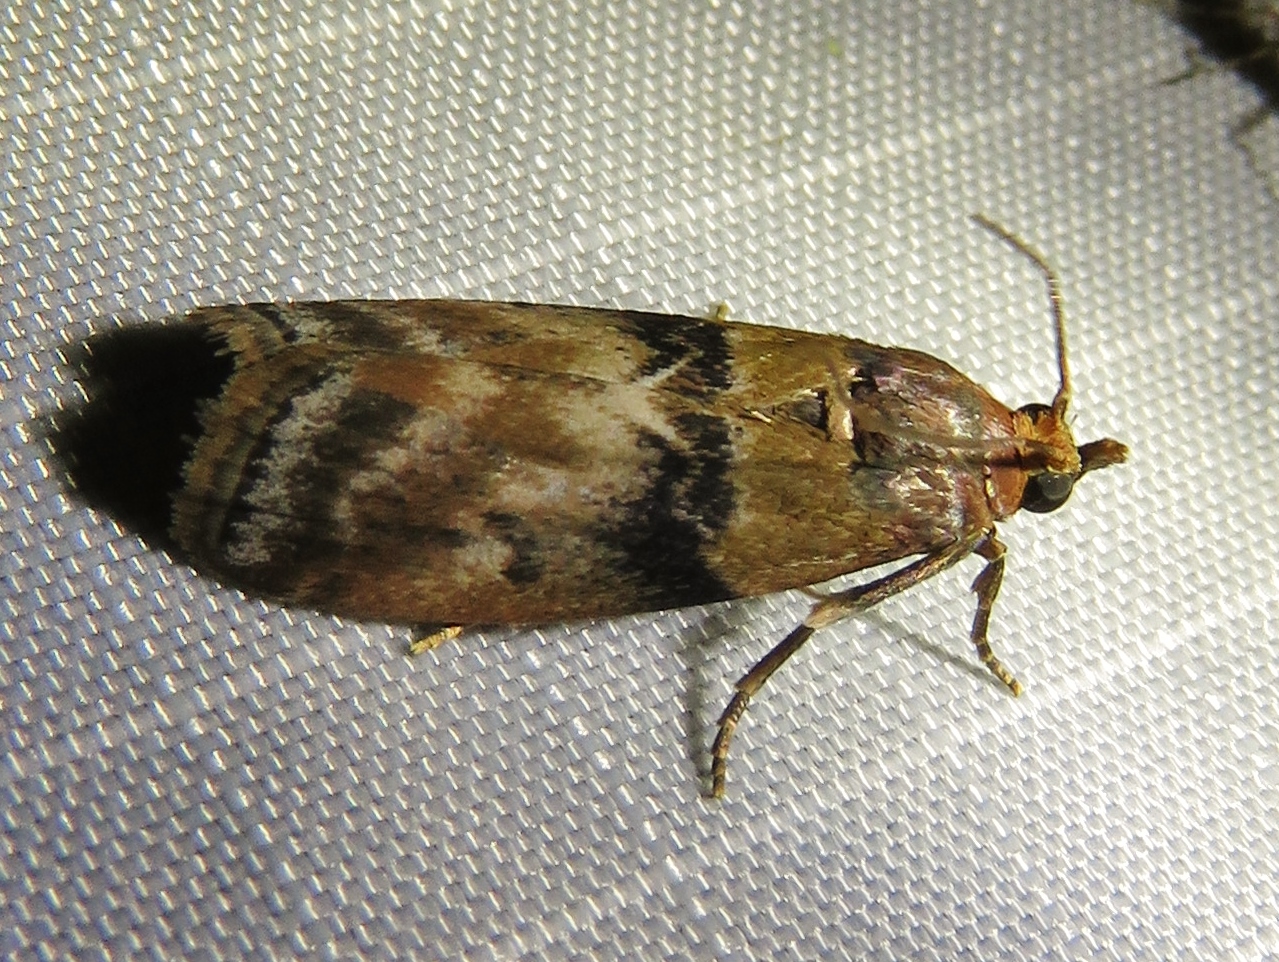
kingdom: Animalia
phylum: Arthropoda
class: Insecta
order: Lepidoptera
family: Pyralidae
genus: Meroptera
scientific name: Meroptera cviatella
